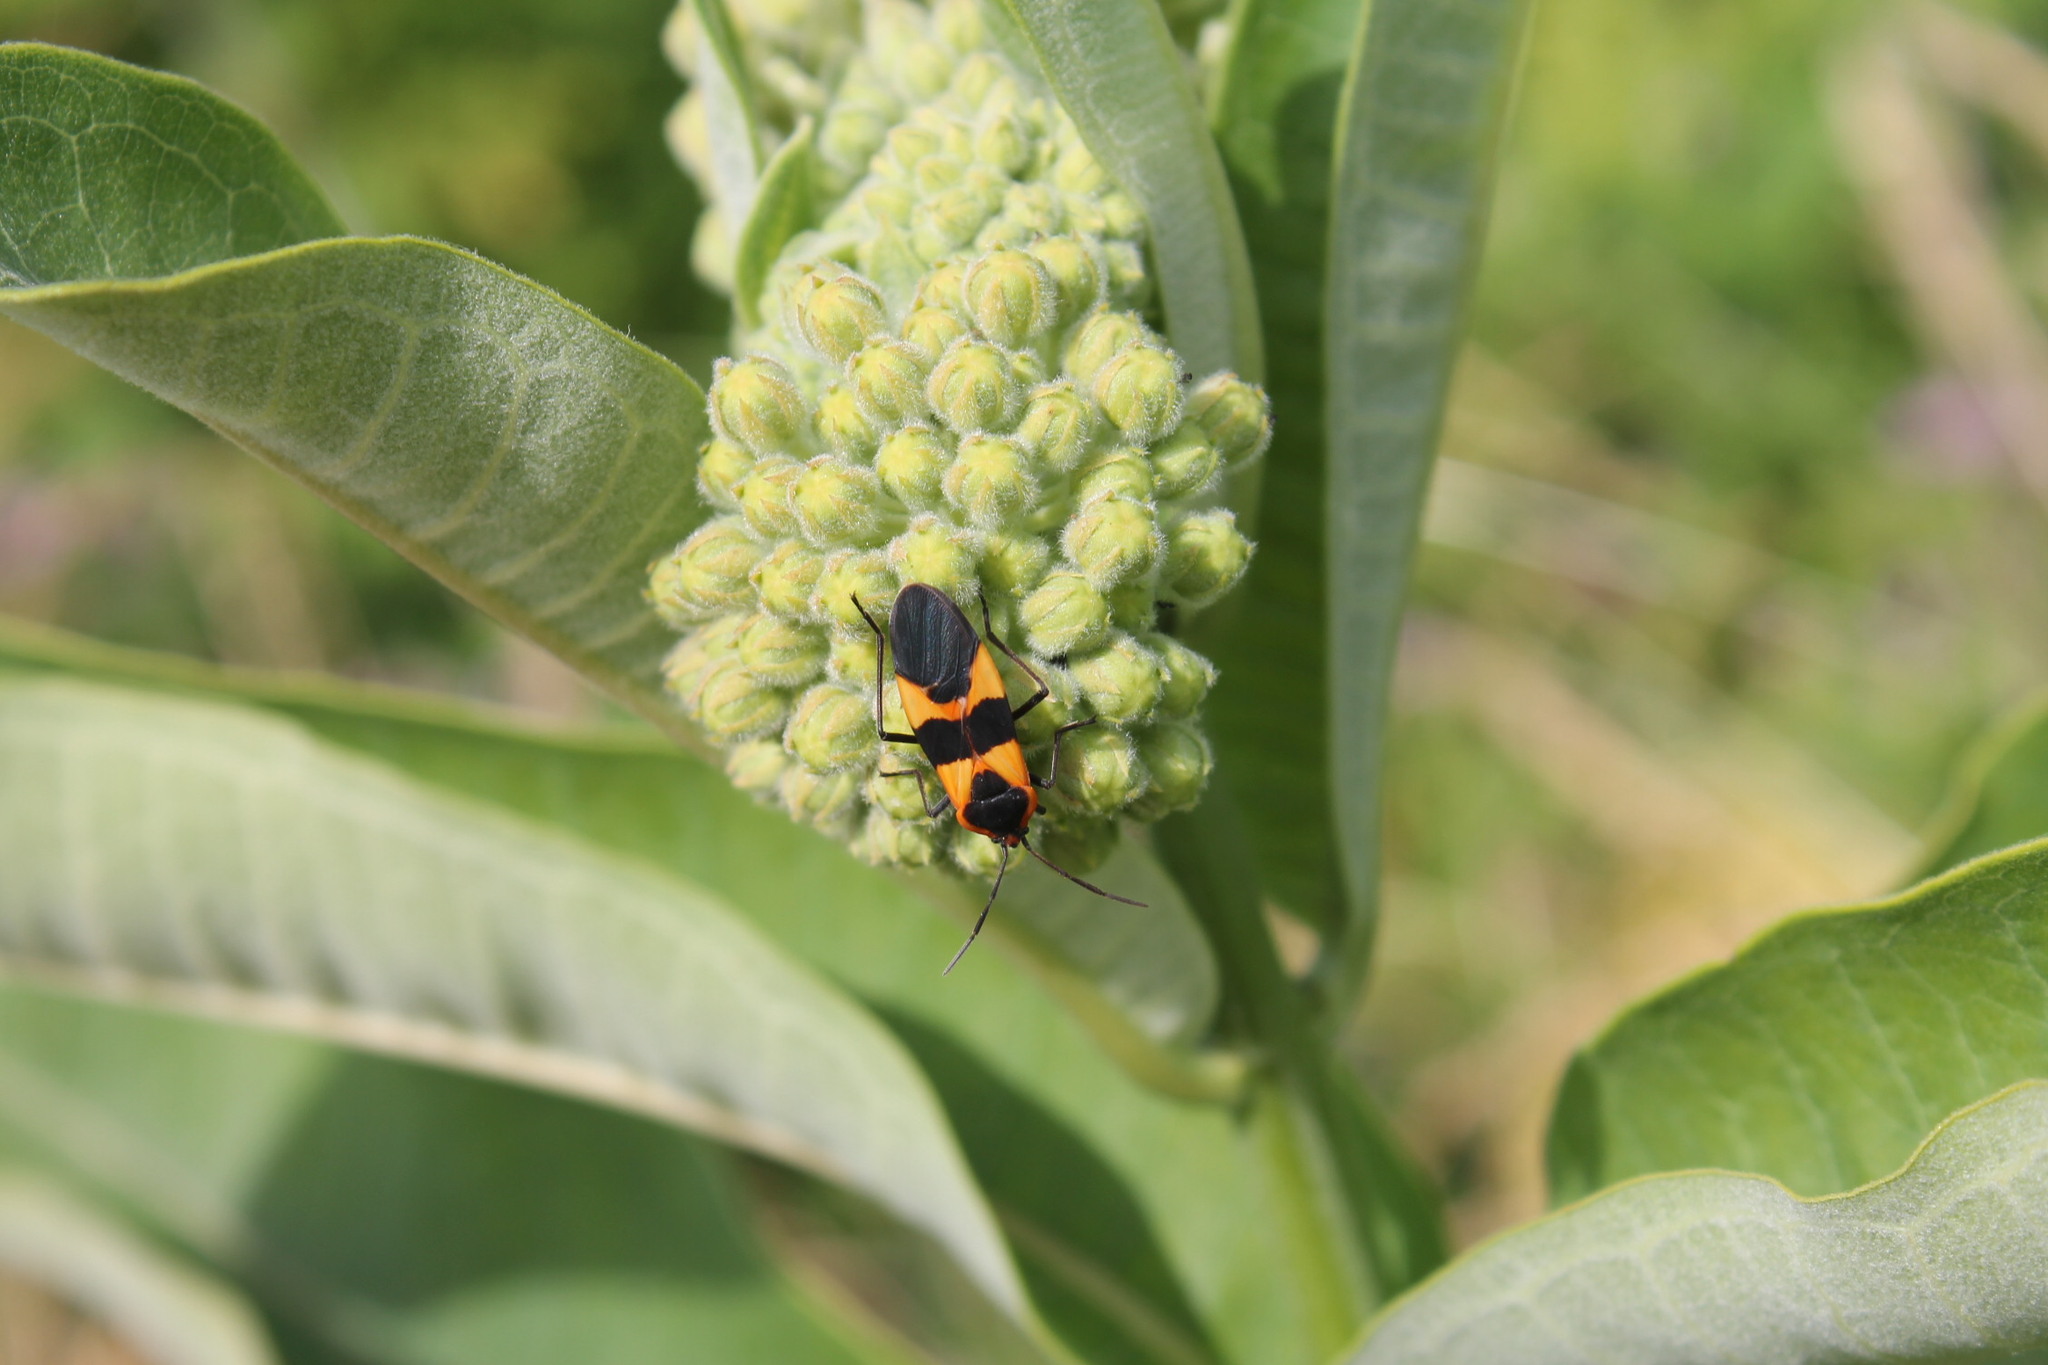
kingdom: Animalia
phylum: Arthropoda
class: Insecta
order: Hemiptera
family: Lygaeidae
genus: Oncopeltus
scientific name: Oncopeltus fasciatus
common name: Large milkweed bug
